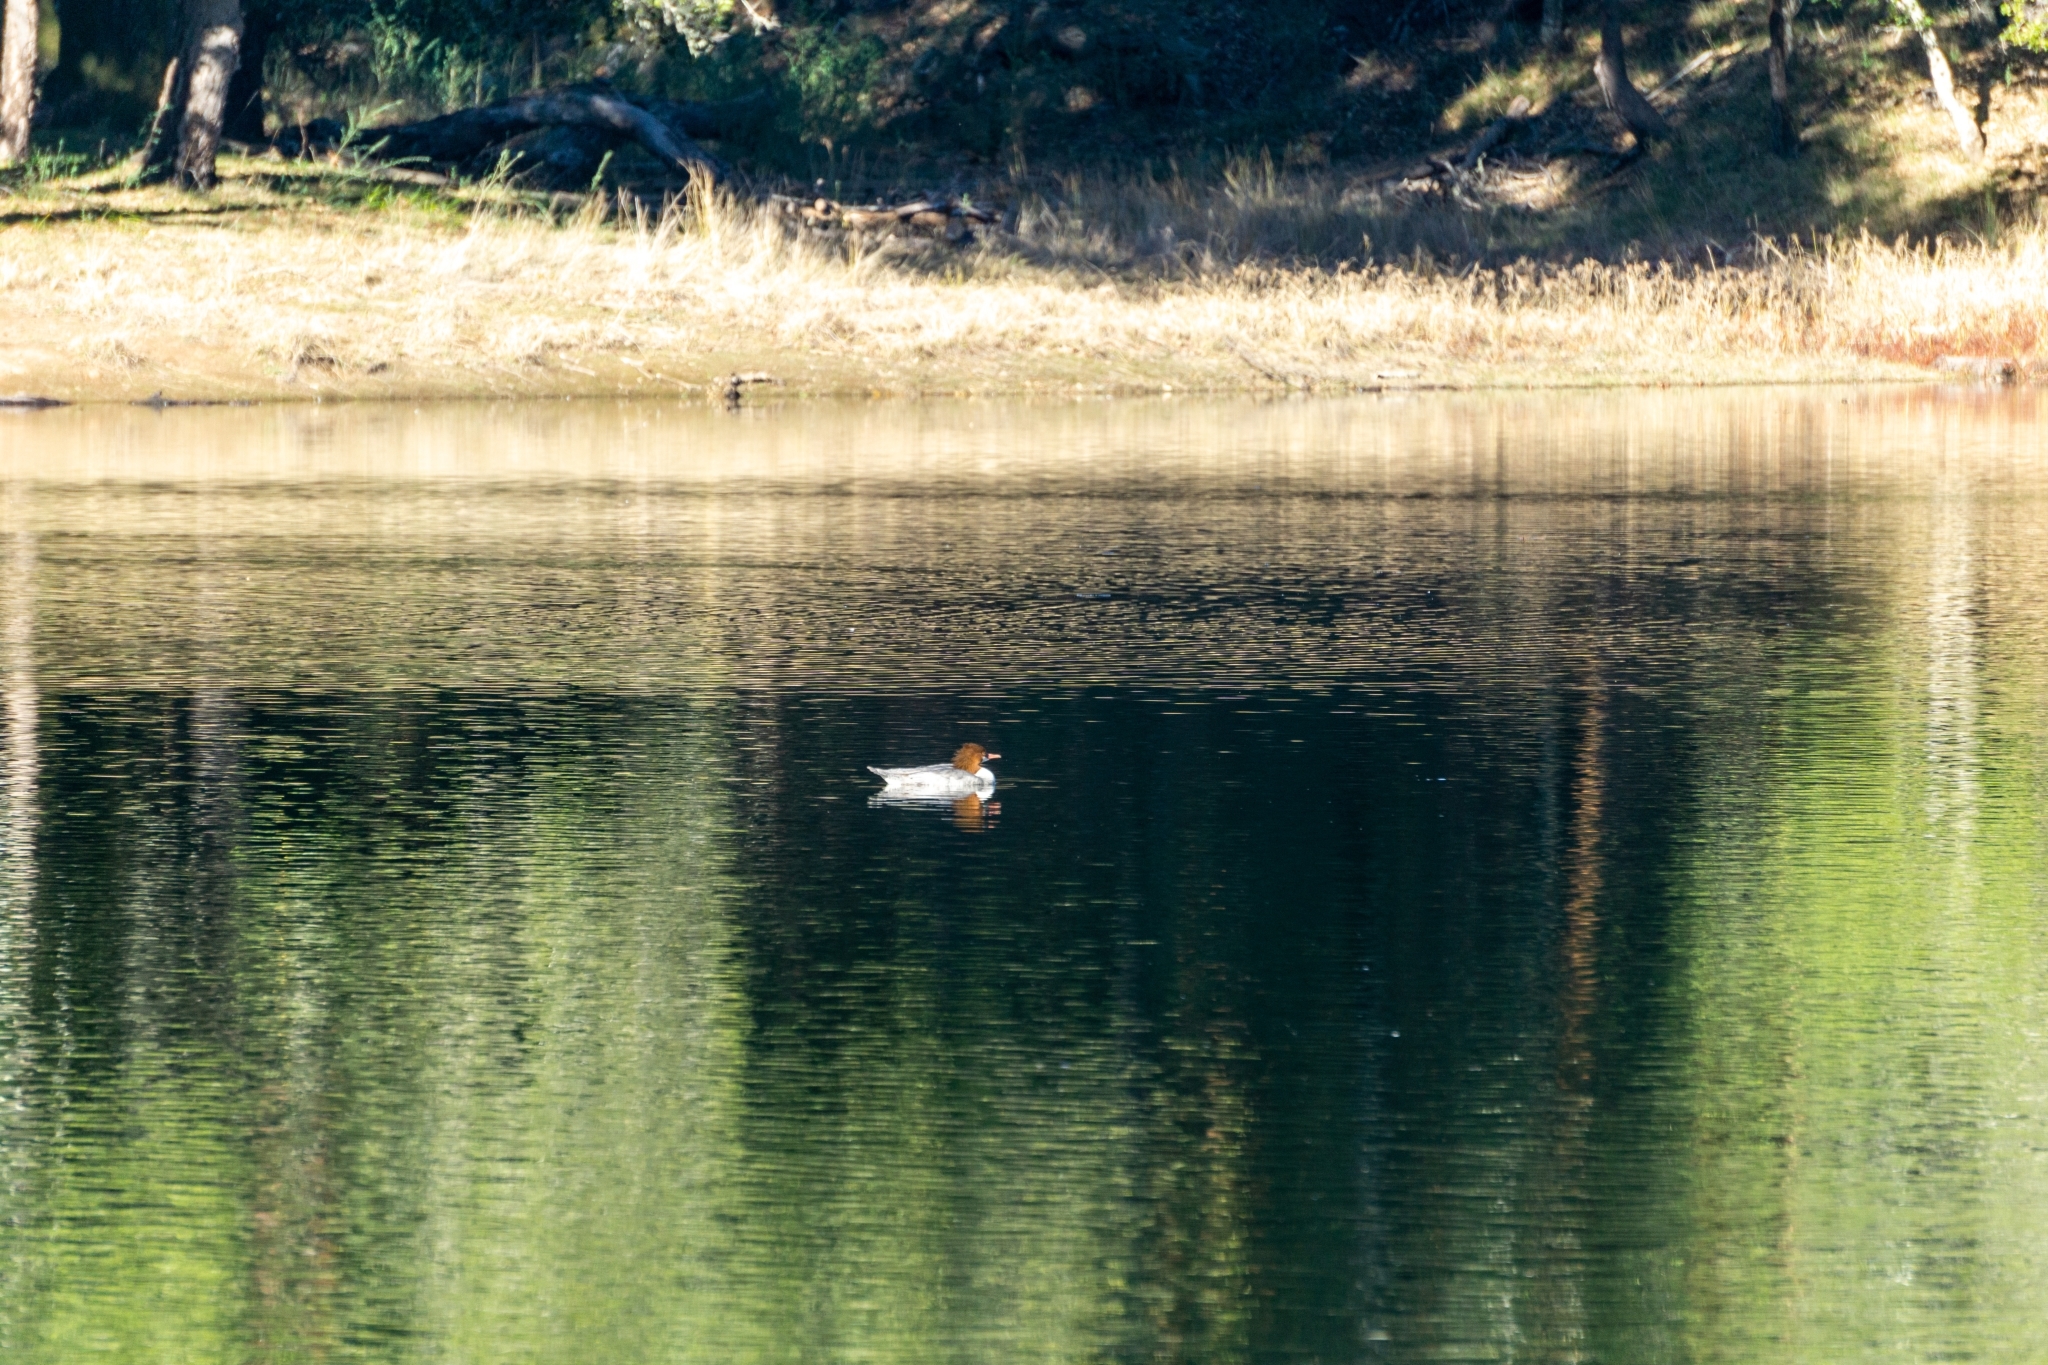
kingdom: Animalia
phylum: Chordata
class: Aves
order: Anseriformes
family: Anatidae
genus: Mergus
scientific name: Mergus merganser
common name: Common merganser
